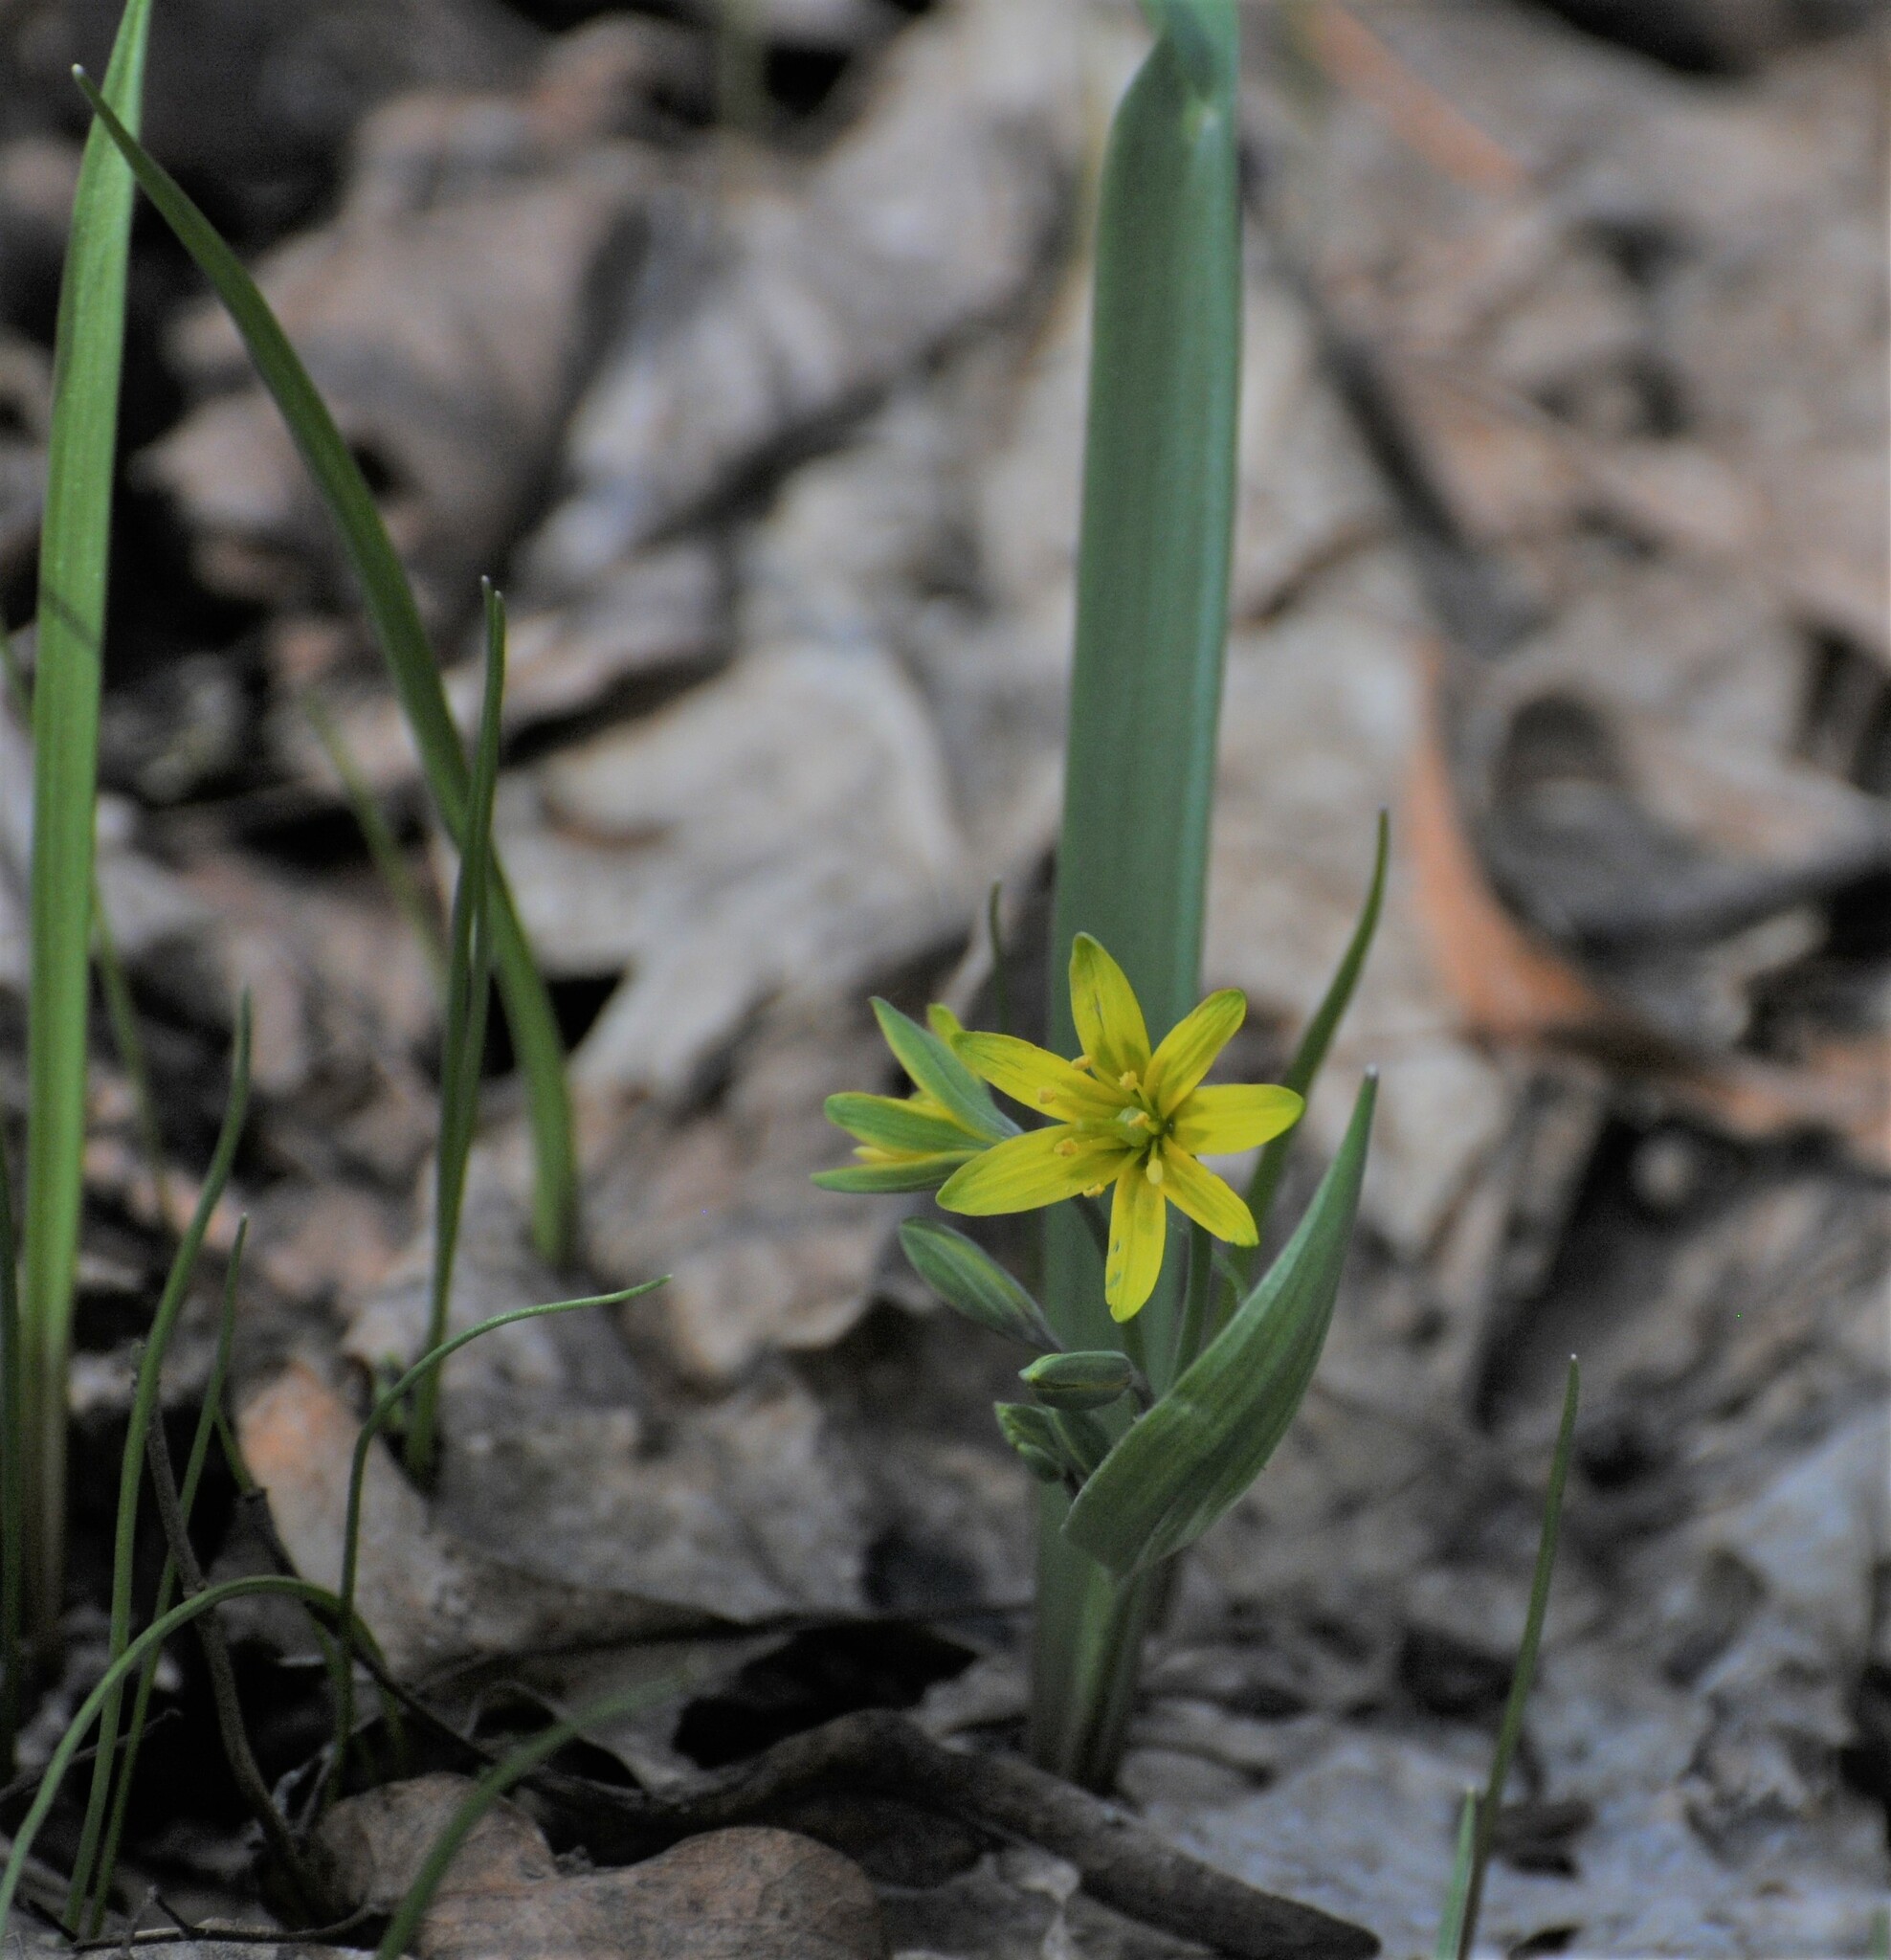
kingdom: Plantae
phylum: Tracheophyta
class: Liliopsida
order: Liliales
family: Liliaceae
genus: Gagea
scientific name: Gagea lutea
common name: Yellow star-of-bethlehem
